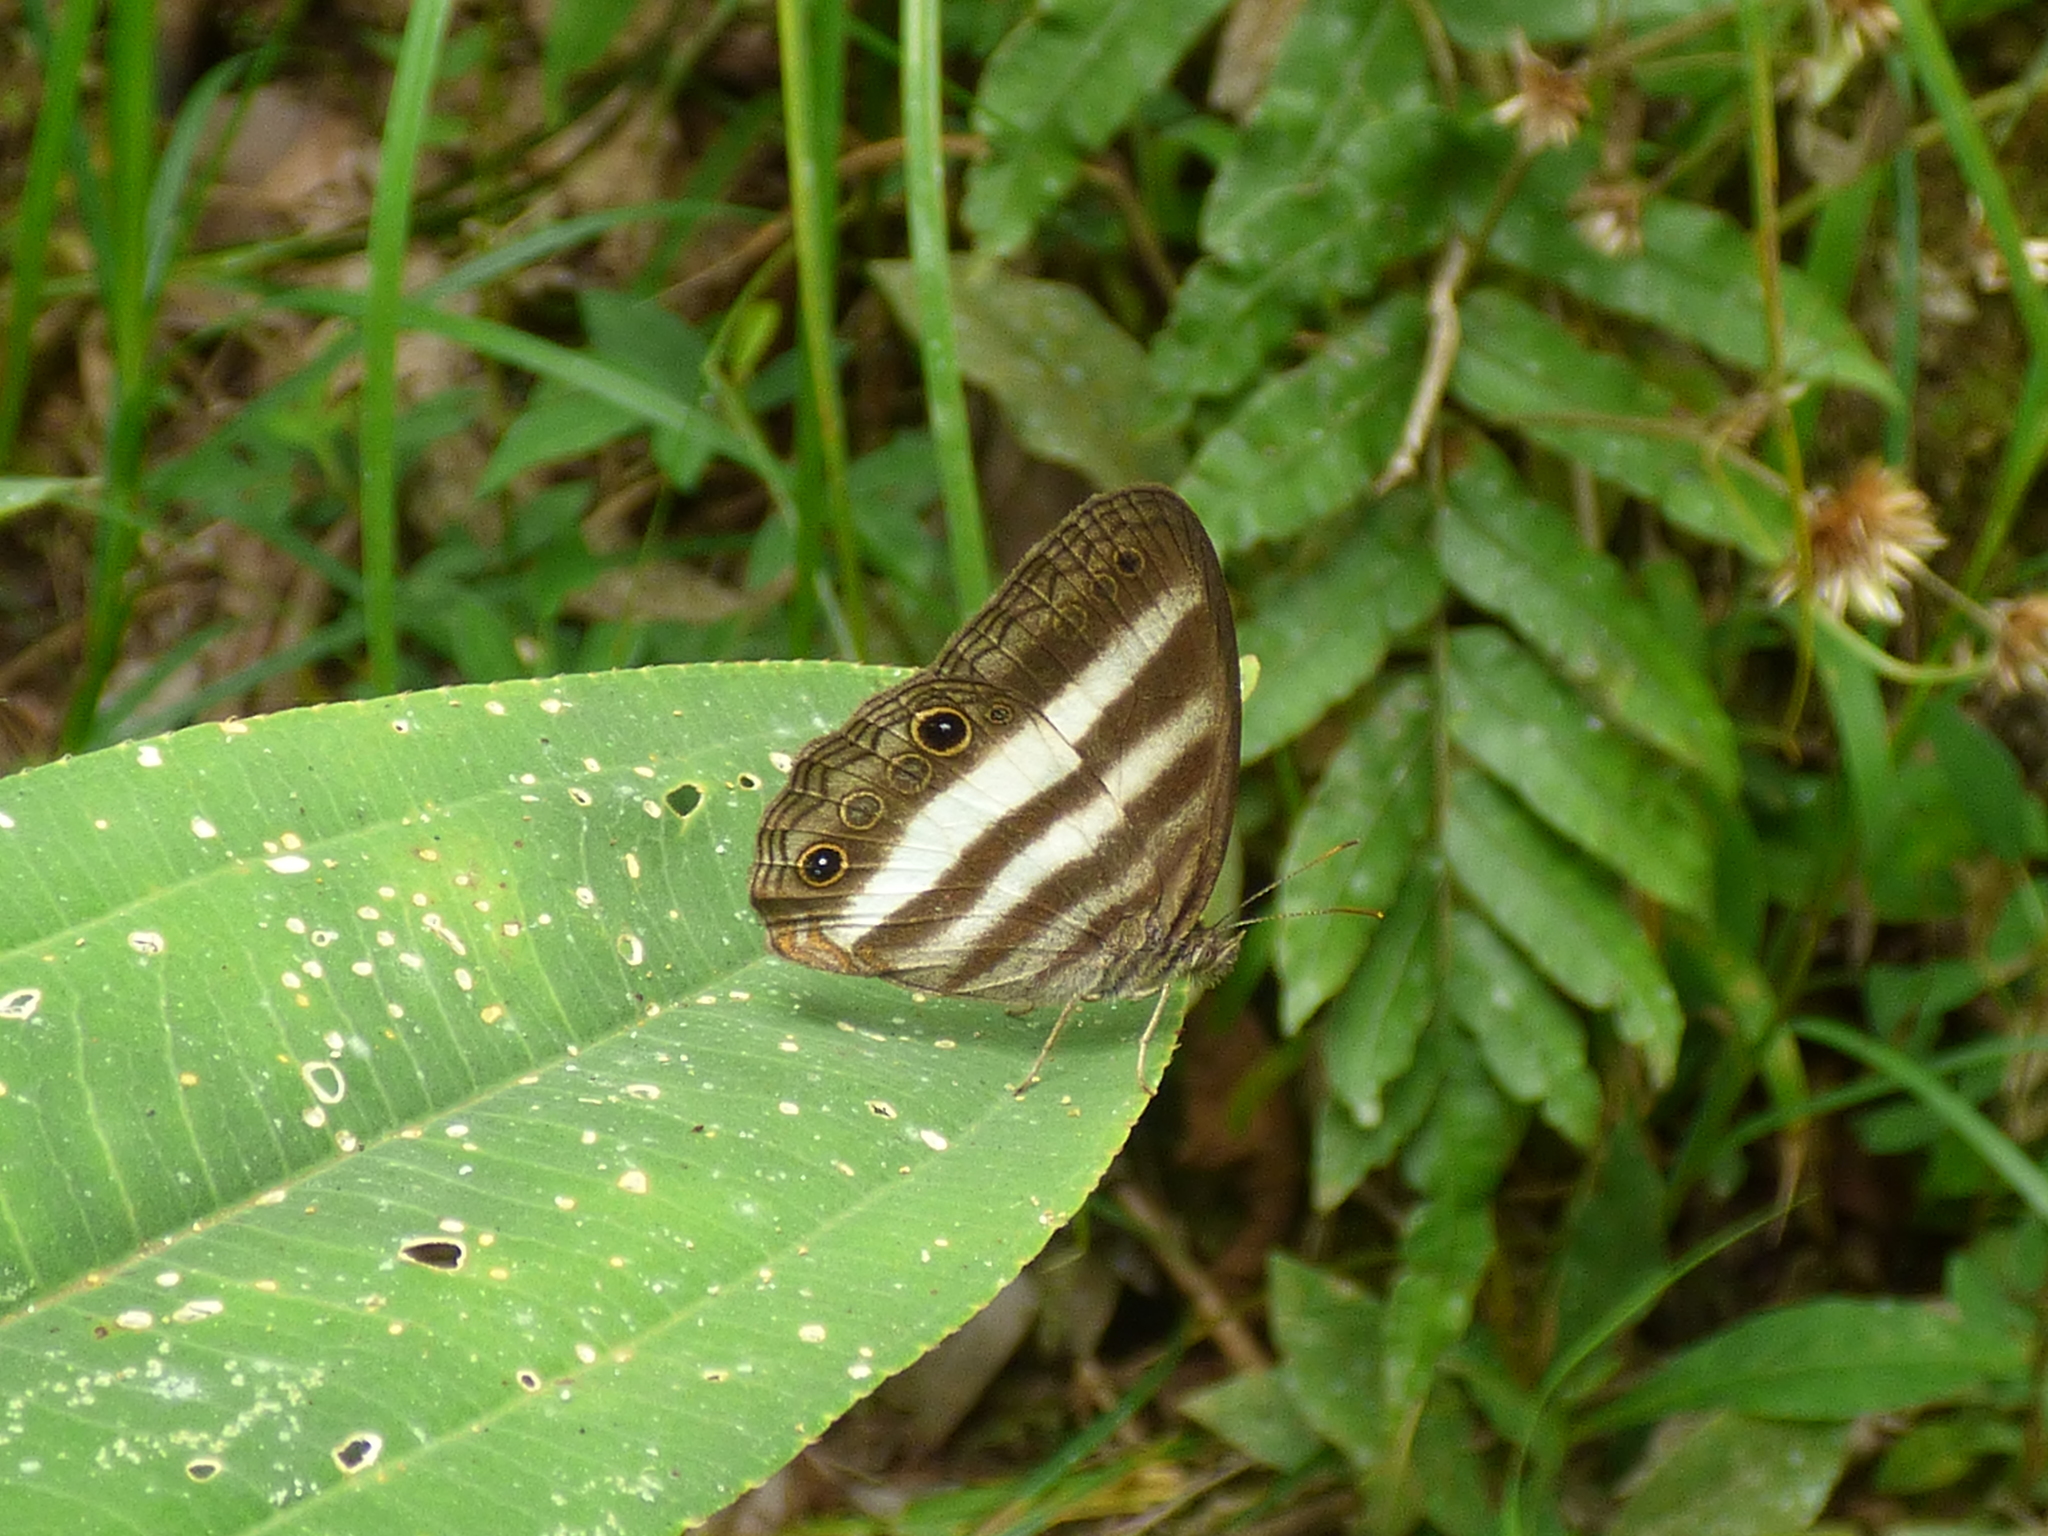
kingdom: Animalia
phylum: Arthropoda
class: Insecta
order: Lepidoptera
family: Nymphalidae
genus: Pareuptychia
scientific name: Pareuptychia hesione
